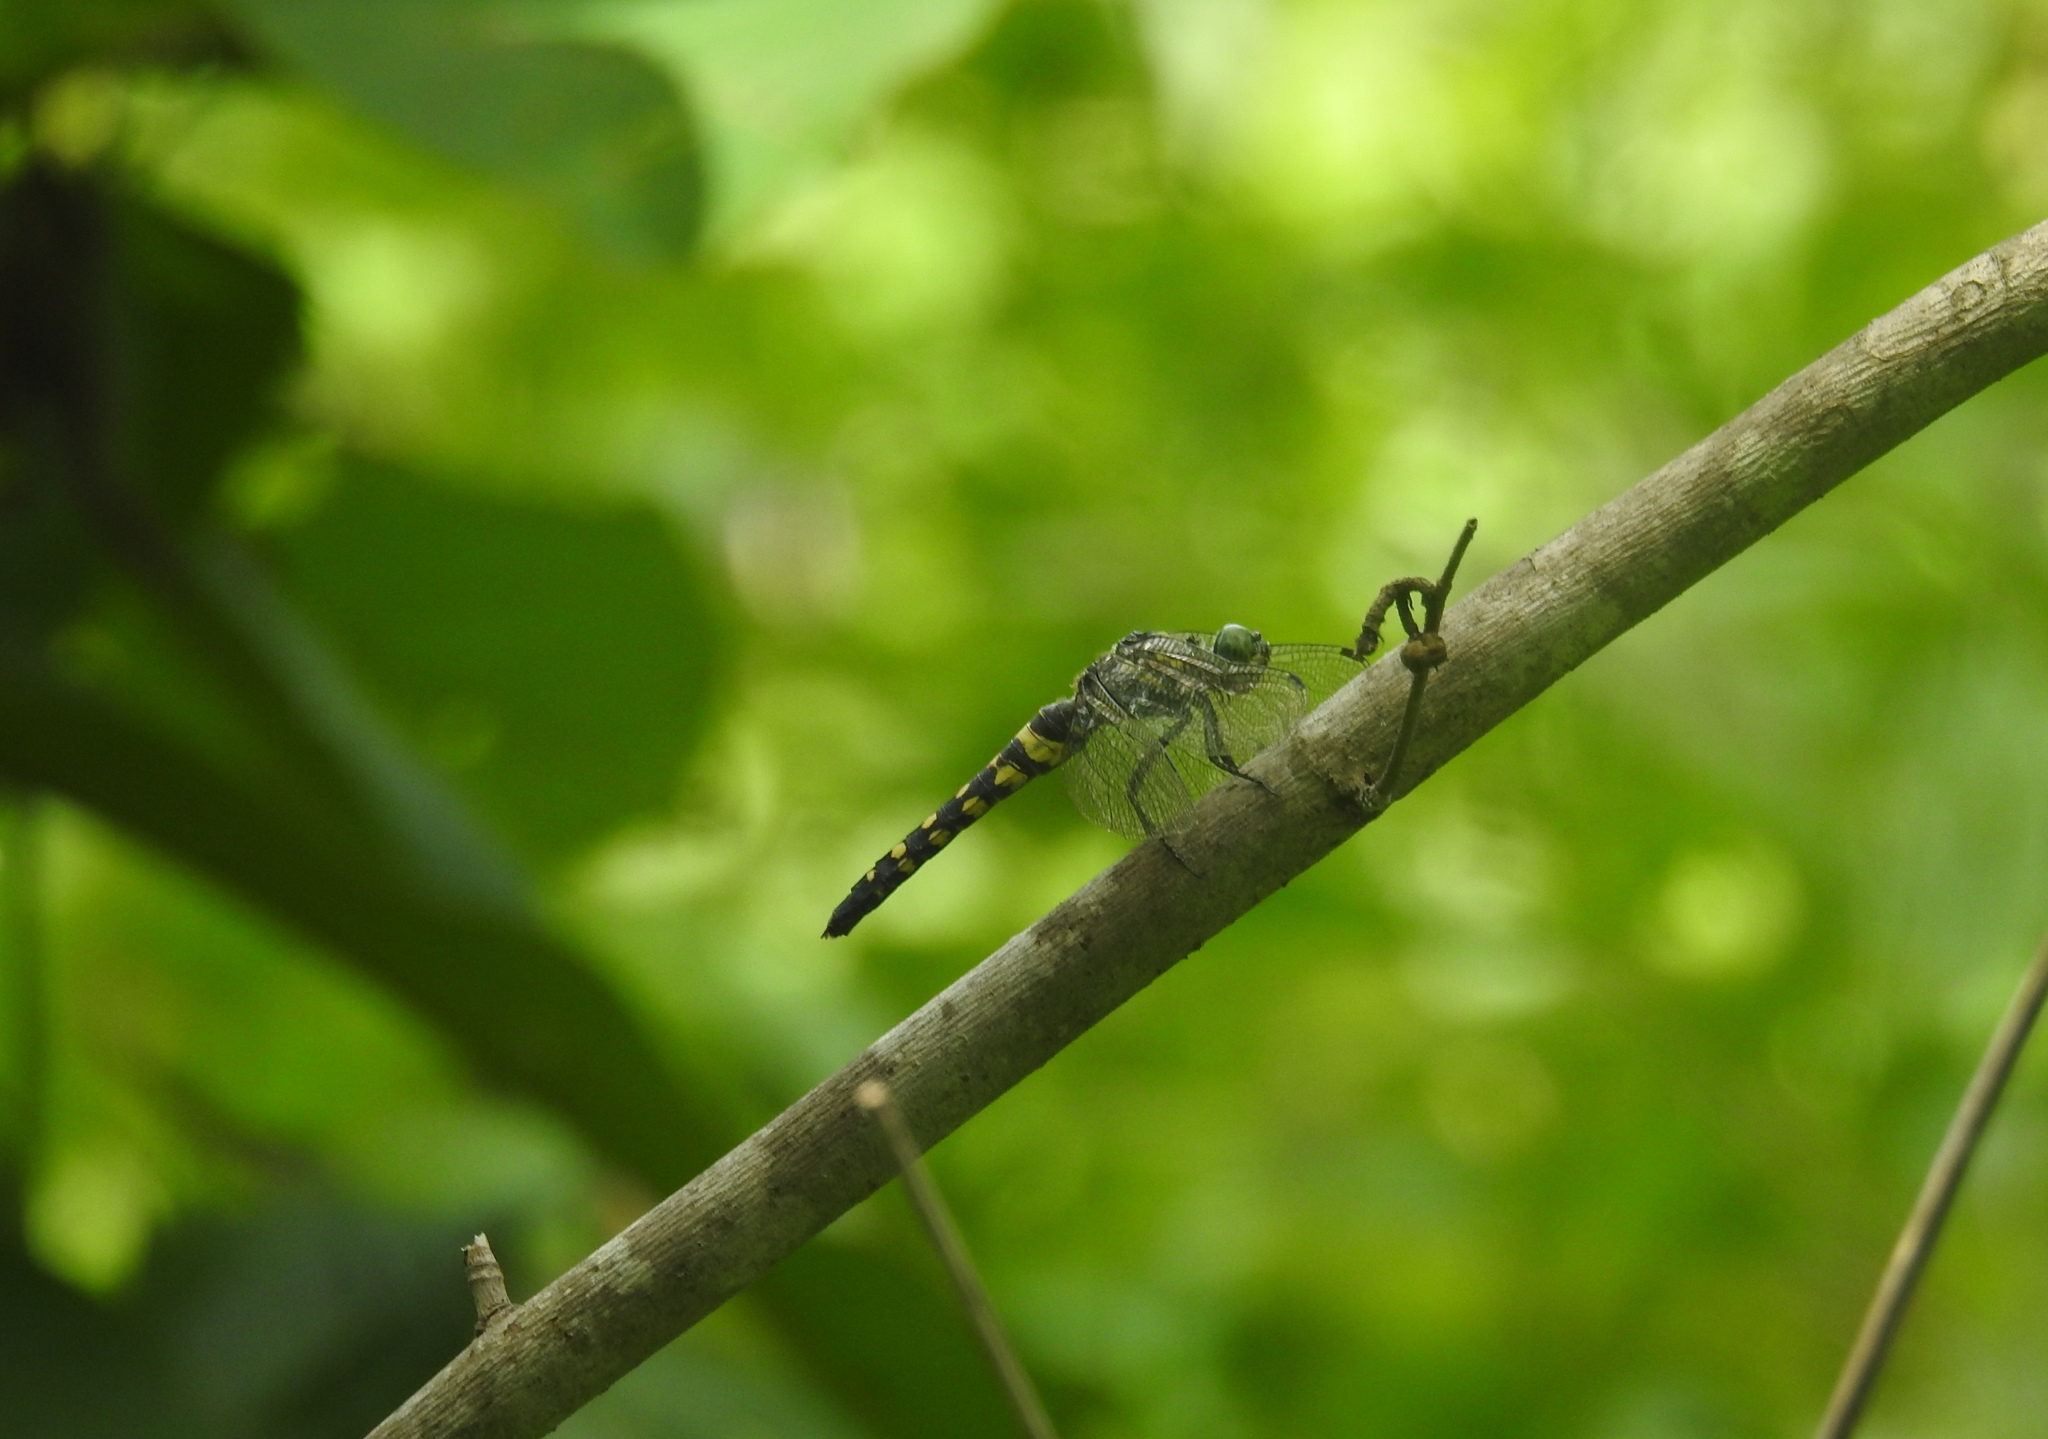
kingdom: Animalia
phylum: Arthropoda
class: Insecta
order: Odonata
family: Libellulidae
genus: Onychothemis
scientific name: Onychothemis testacea
